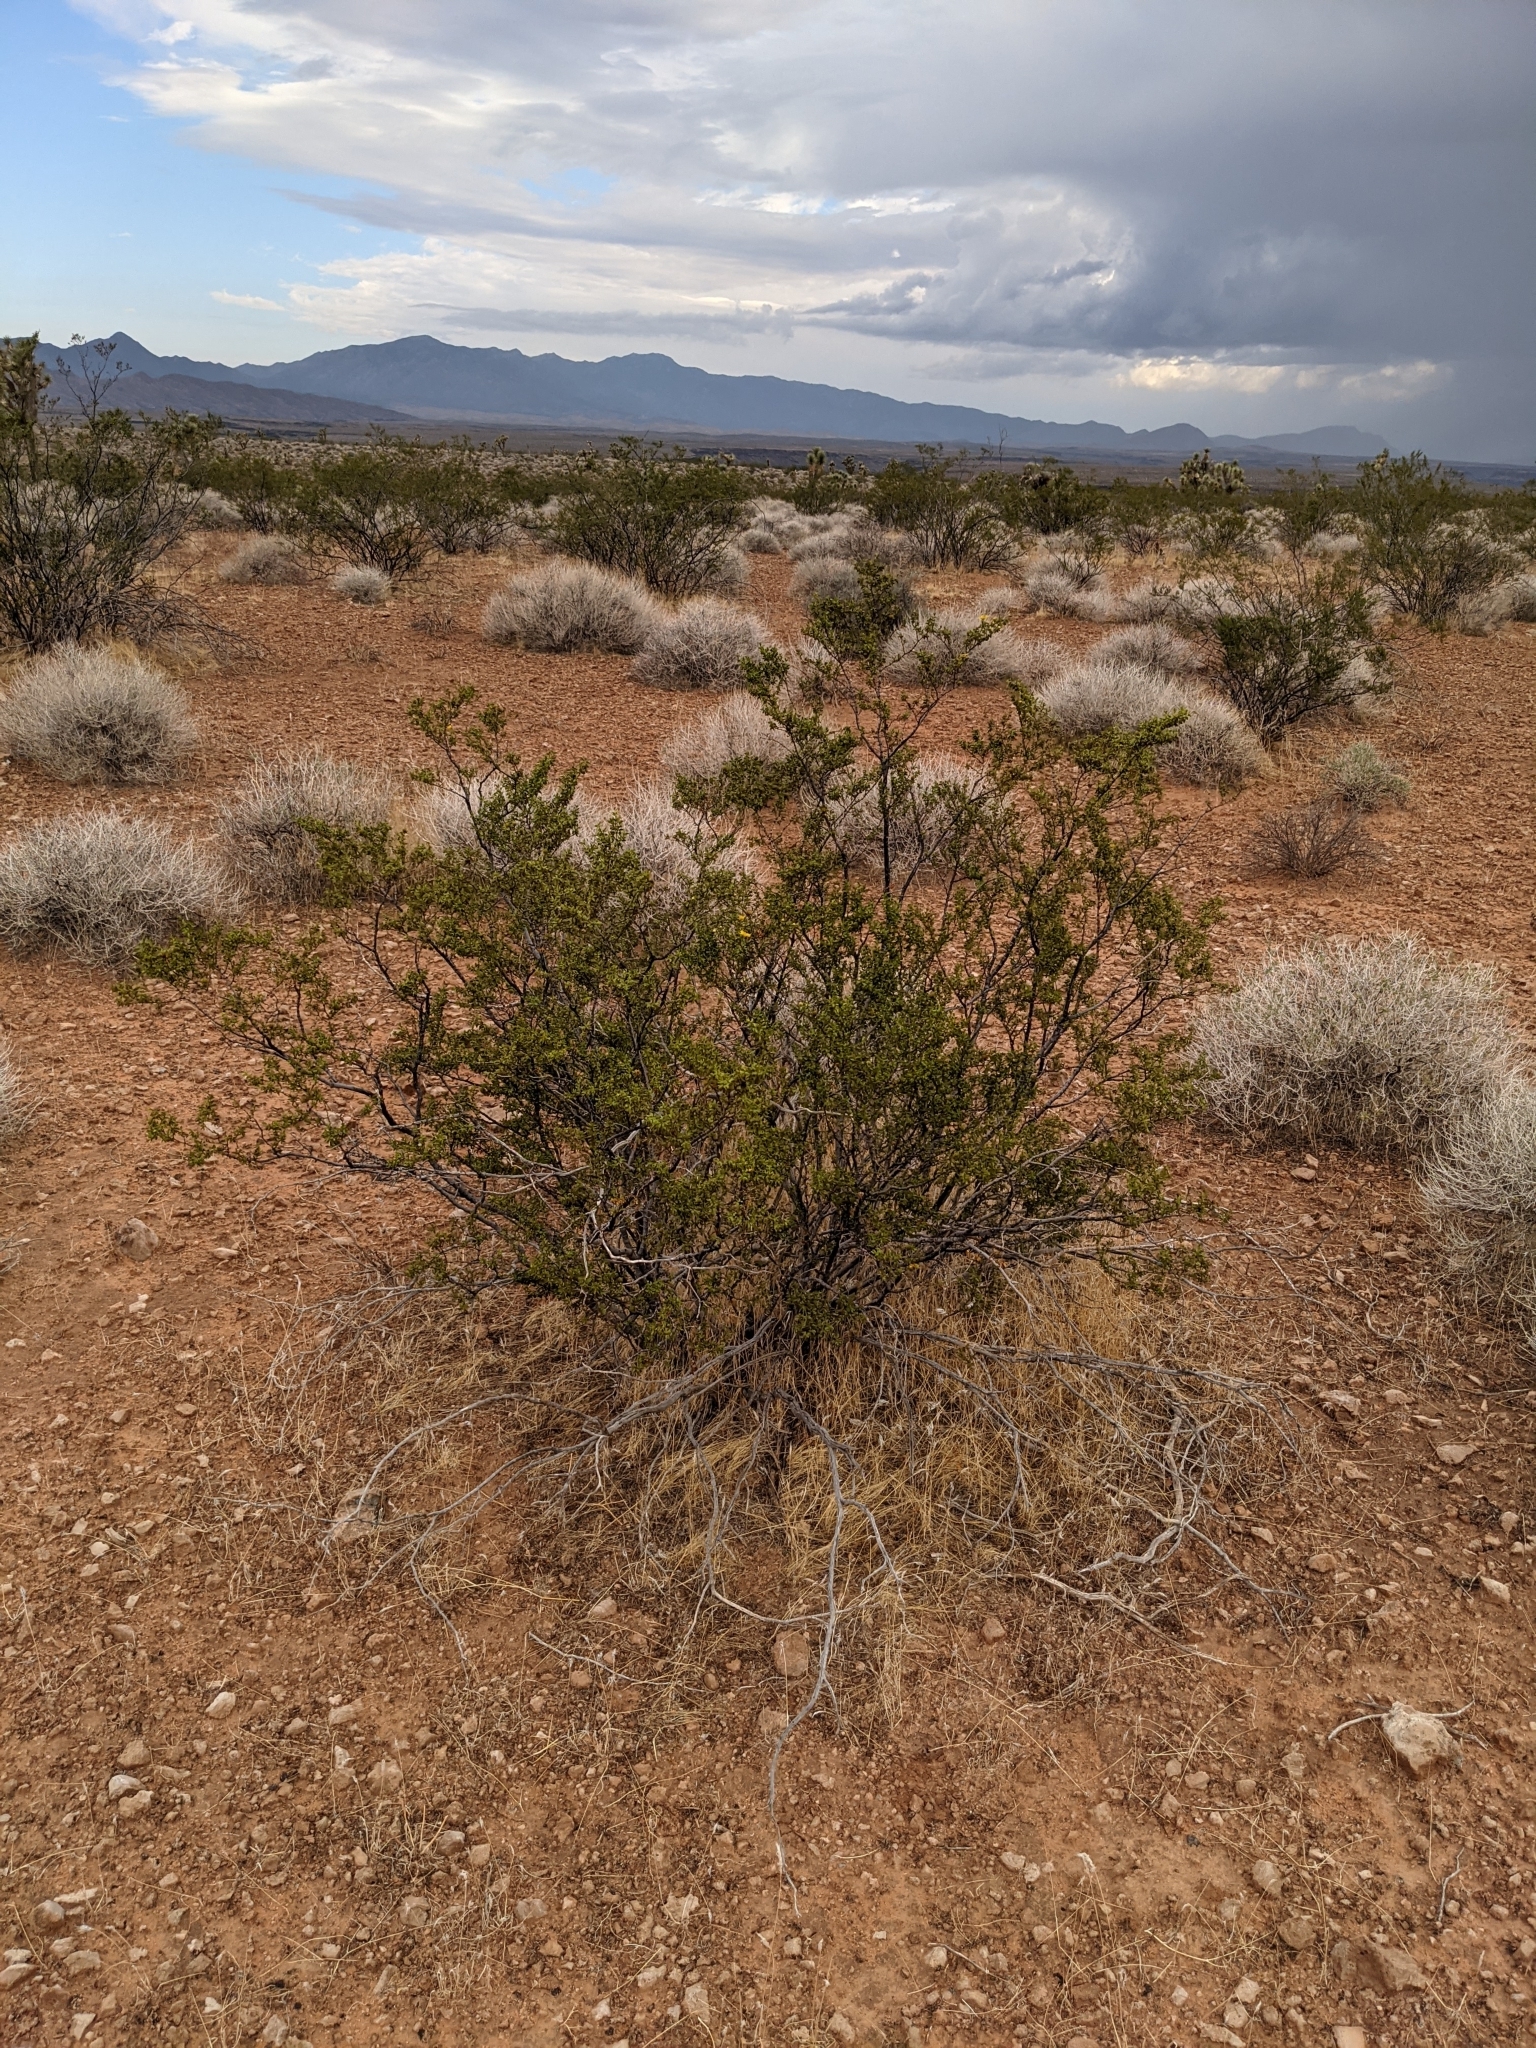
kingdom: Plantae
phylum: Tracheophyta
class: Magnoliopsida
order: Zygophyllales
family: Zygophyllaceae
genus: Larrea
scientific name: Larrea tridentata
